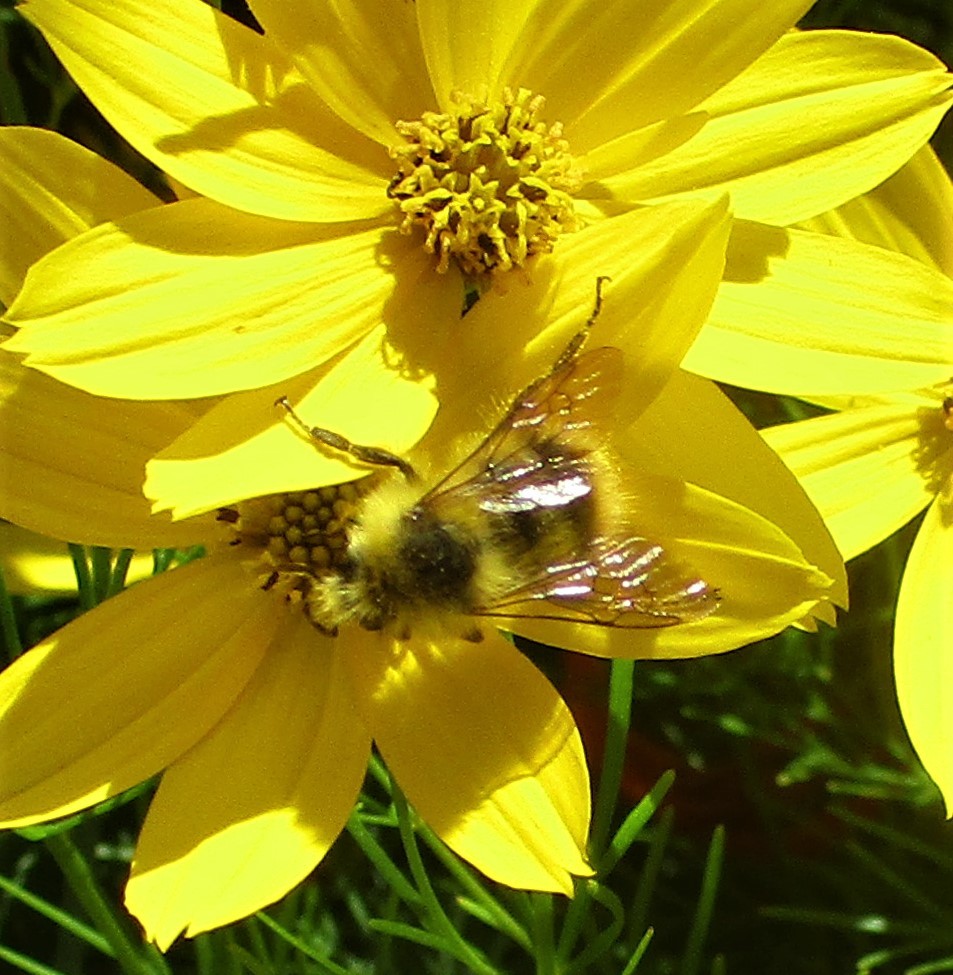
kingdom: Animalia
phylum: Arthropoda
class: Insecta
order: Hymenoptera
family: Apidae
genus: Bombus
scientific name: Bombus mixtus
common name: Fuzzy-horned bumble bee
